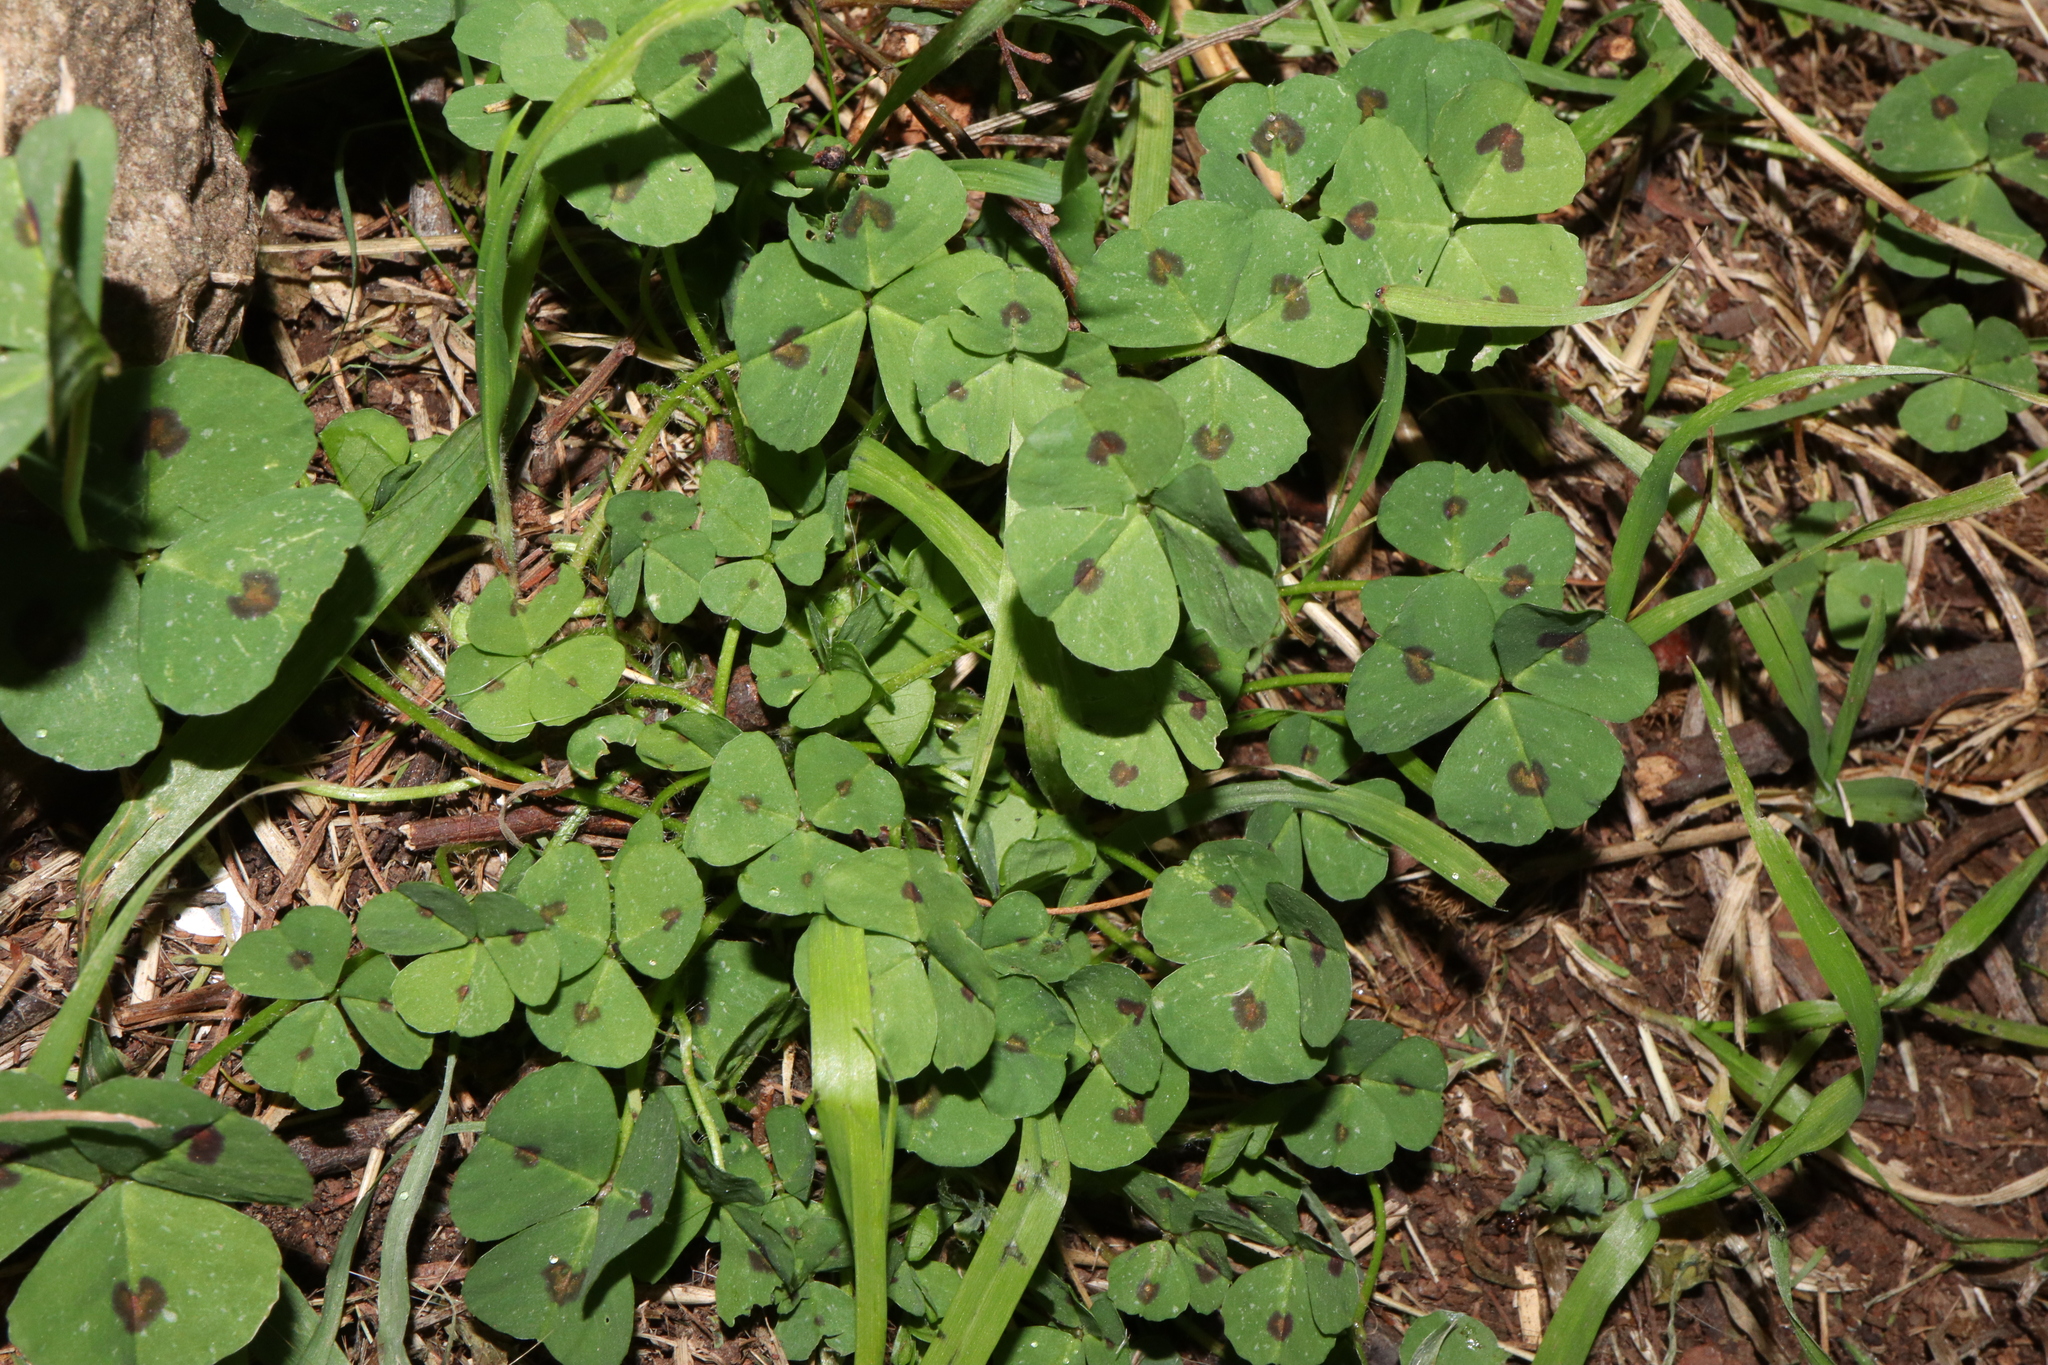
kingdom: Plantae
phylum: Tracheophyta
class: Magnoliopsida
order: Fabales
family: Fabaceae
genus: Medicago
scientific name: Medicago arabica
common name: Spotted medick
